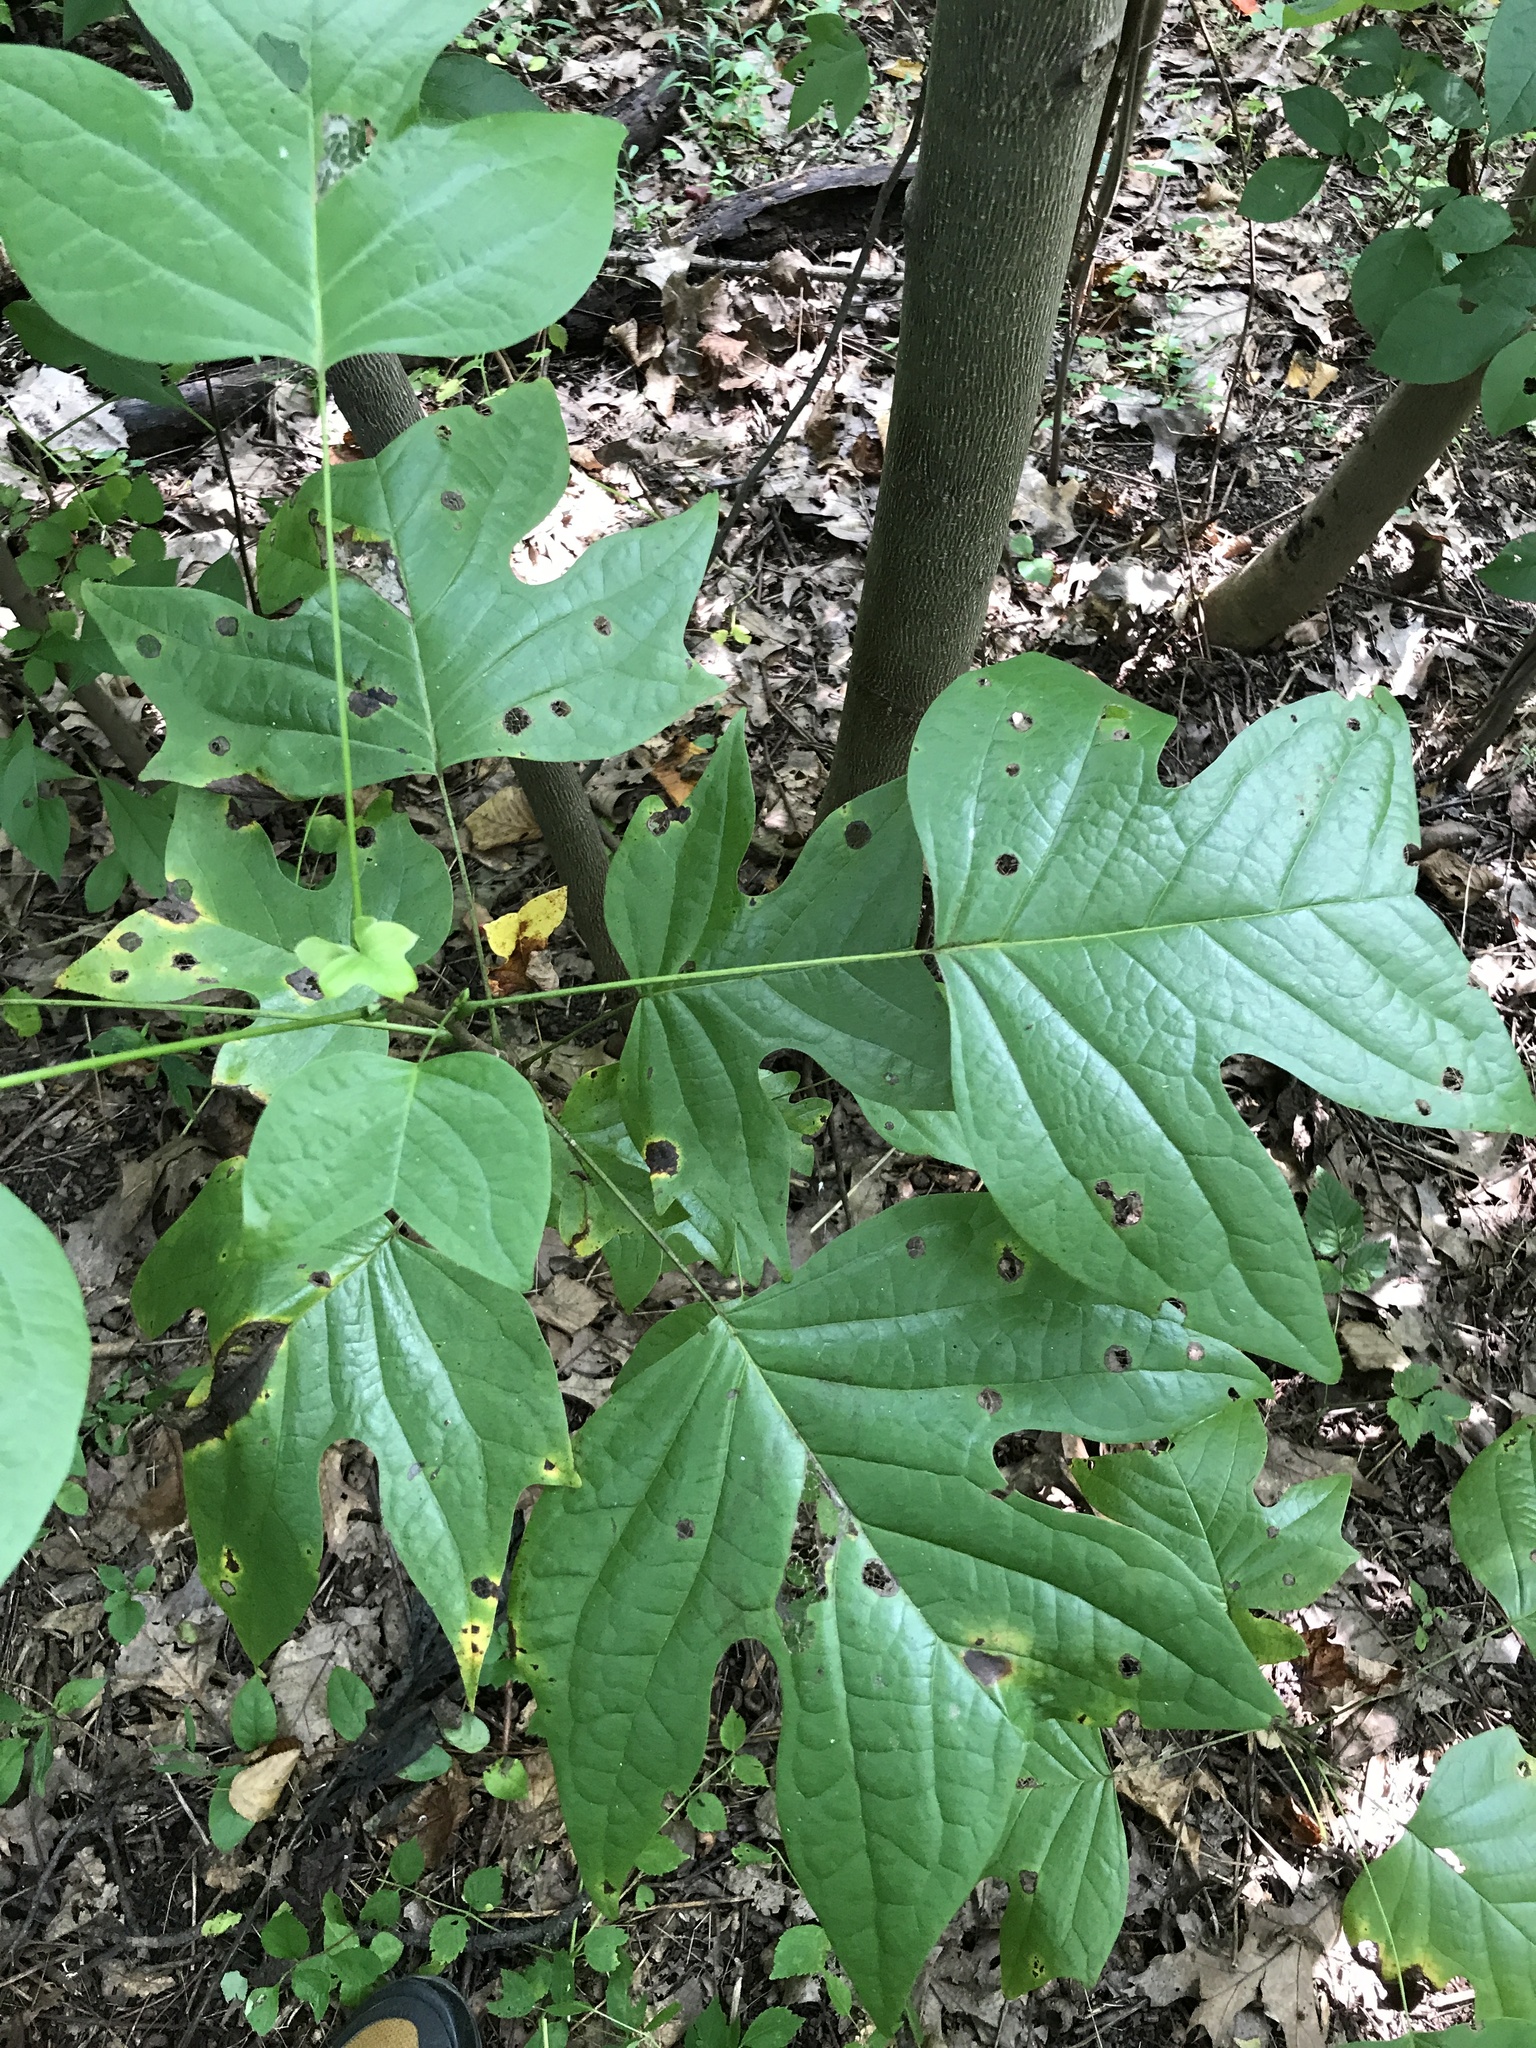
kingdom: Plantae
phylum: Tracheophyta
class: Magnoliopsida
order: Magnoliales
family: Magnoliaceae
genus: Liriodendron
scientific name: Liriodendron tulipifera
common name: Tulip tree
